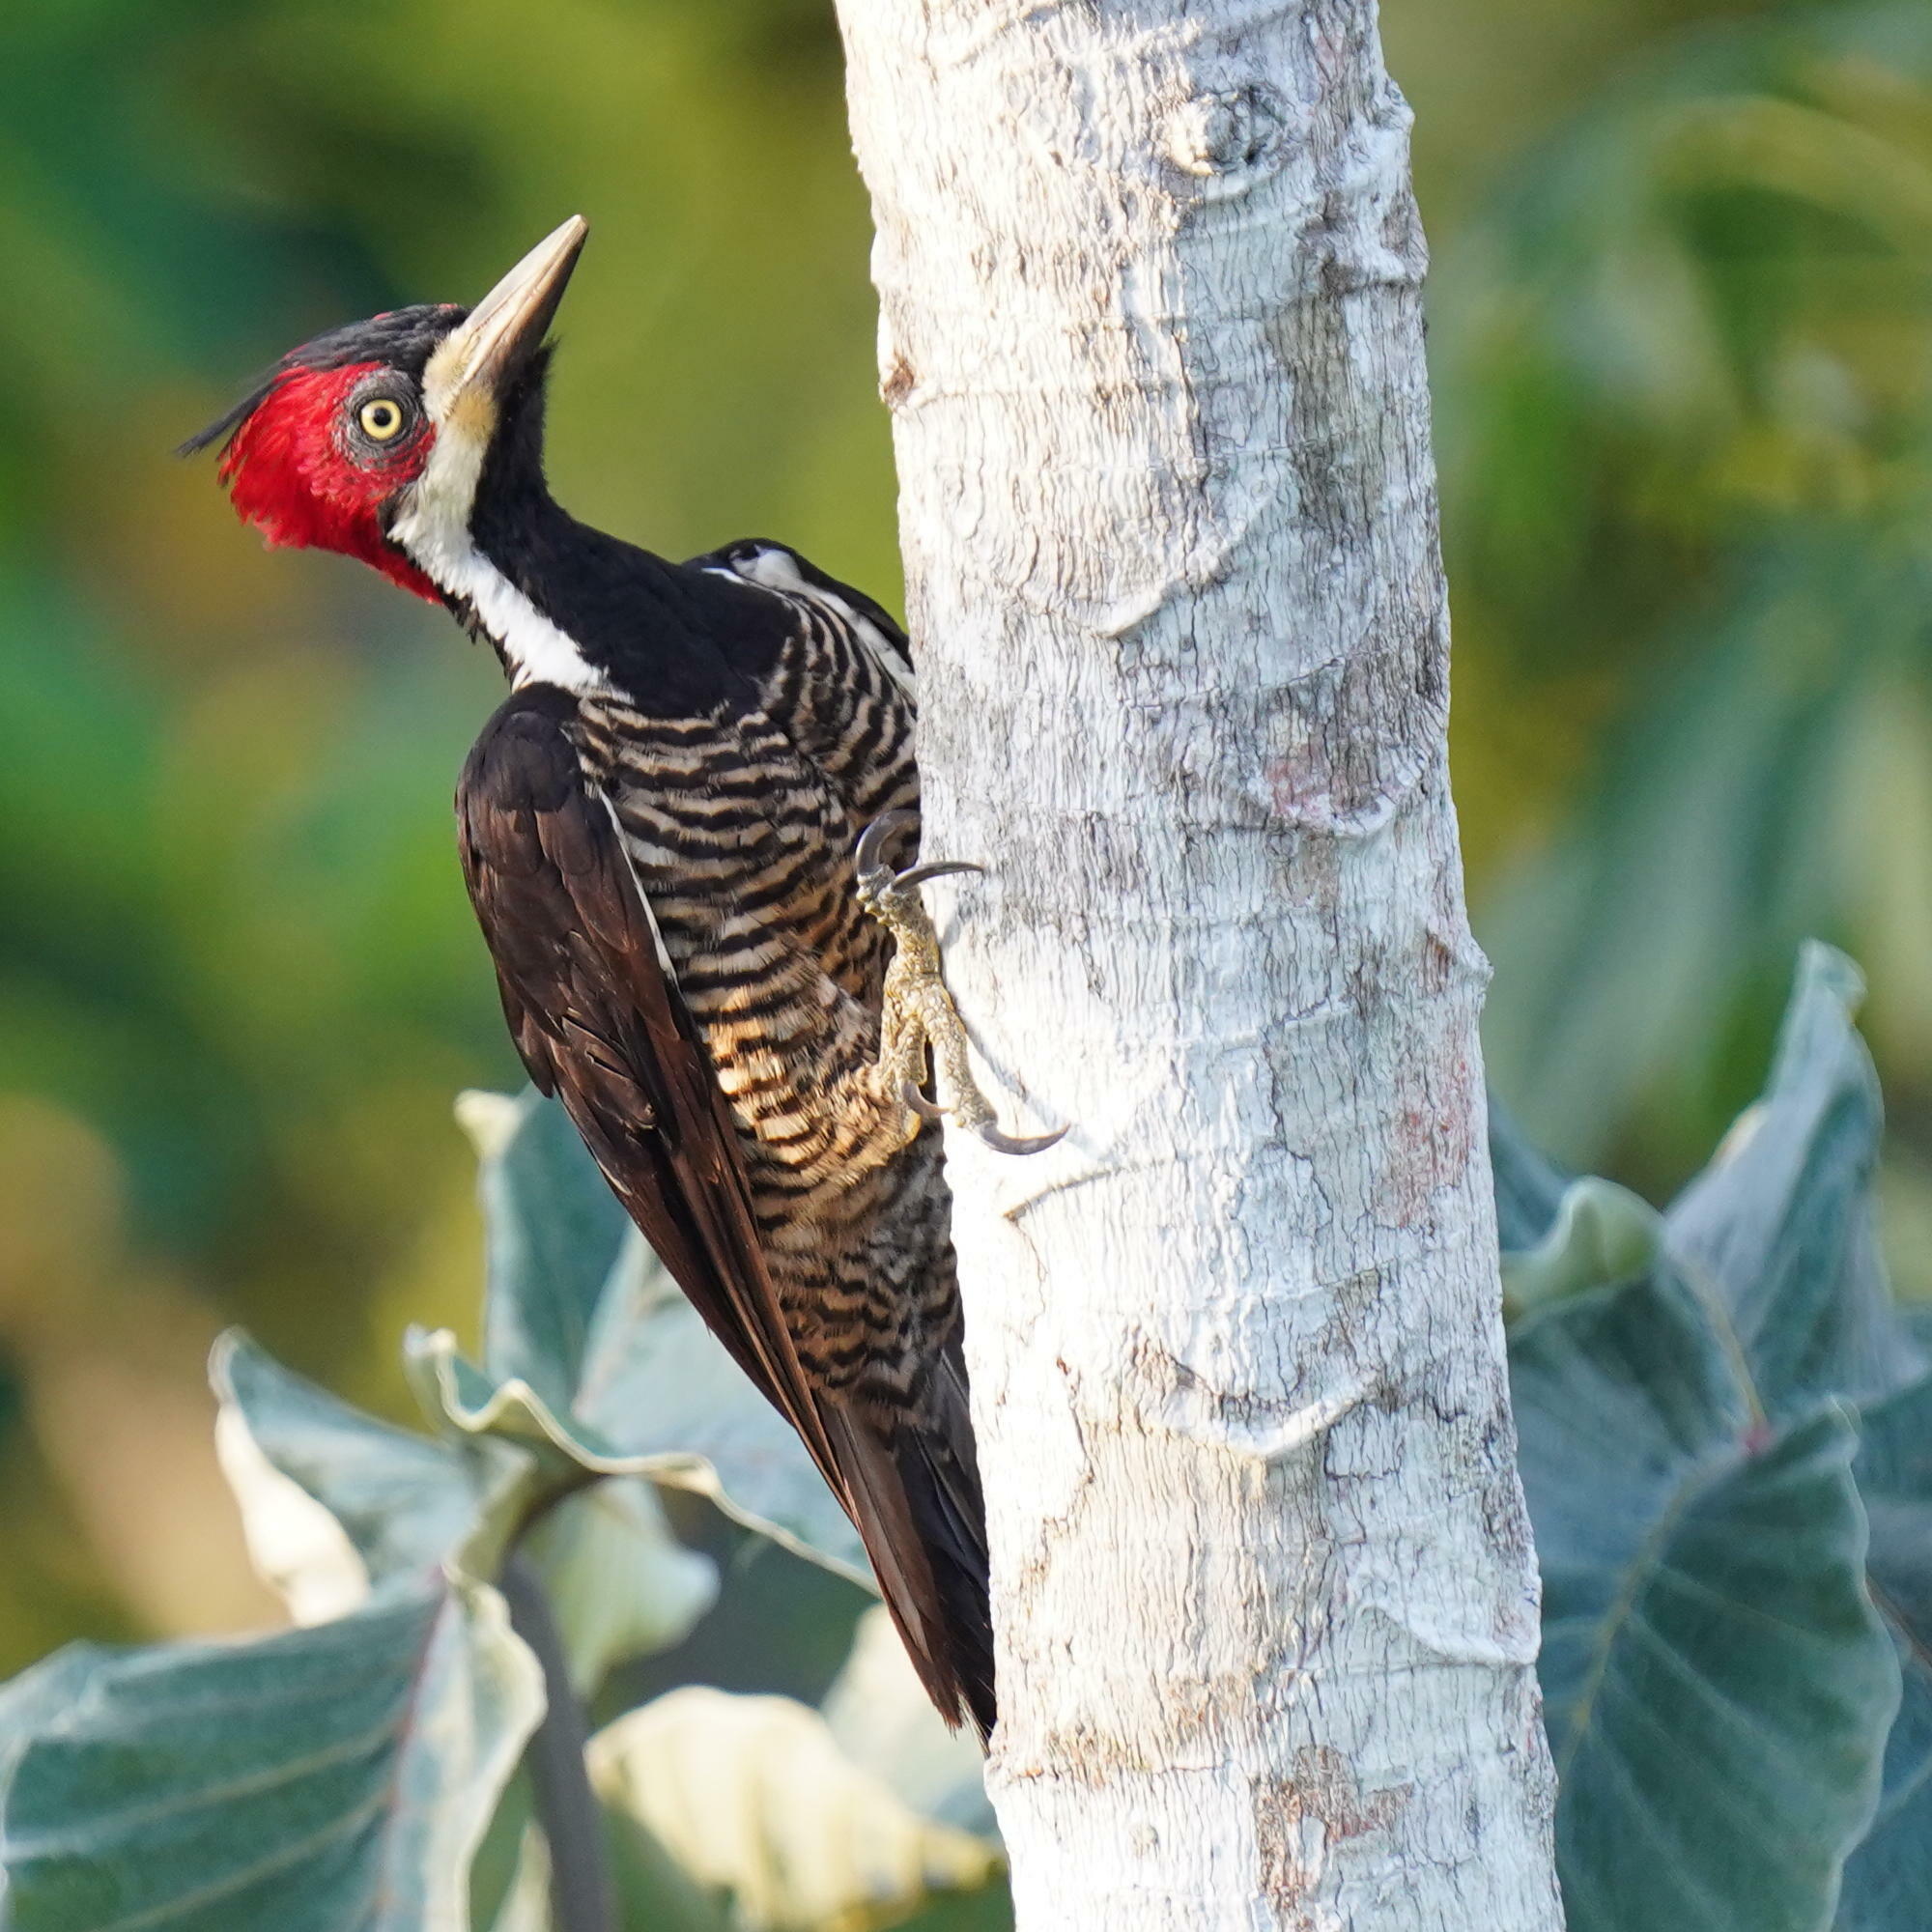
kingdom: Animalia
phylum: Chordata
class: Aves
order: Piciformes
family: Picidae
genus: Campephilus
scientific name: Campephilus melanoleucos
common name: Crimson-crested woodpecker
